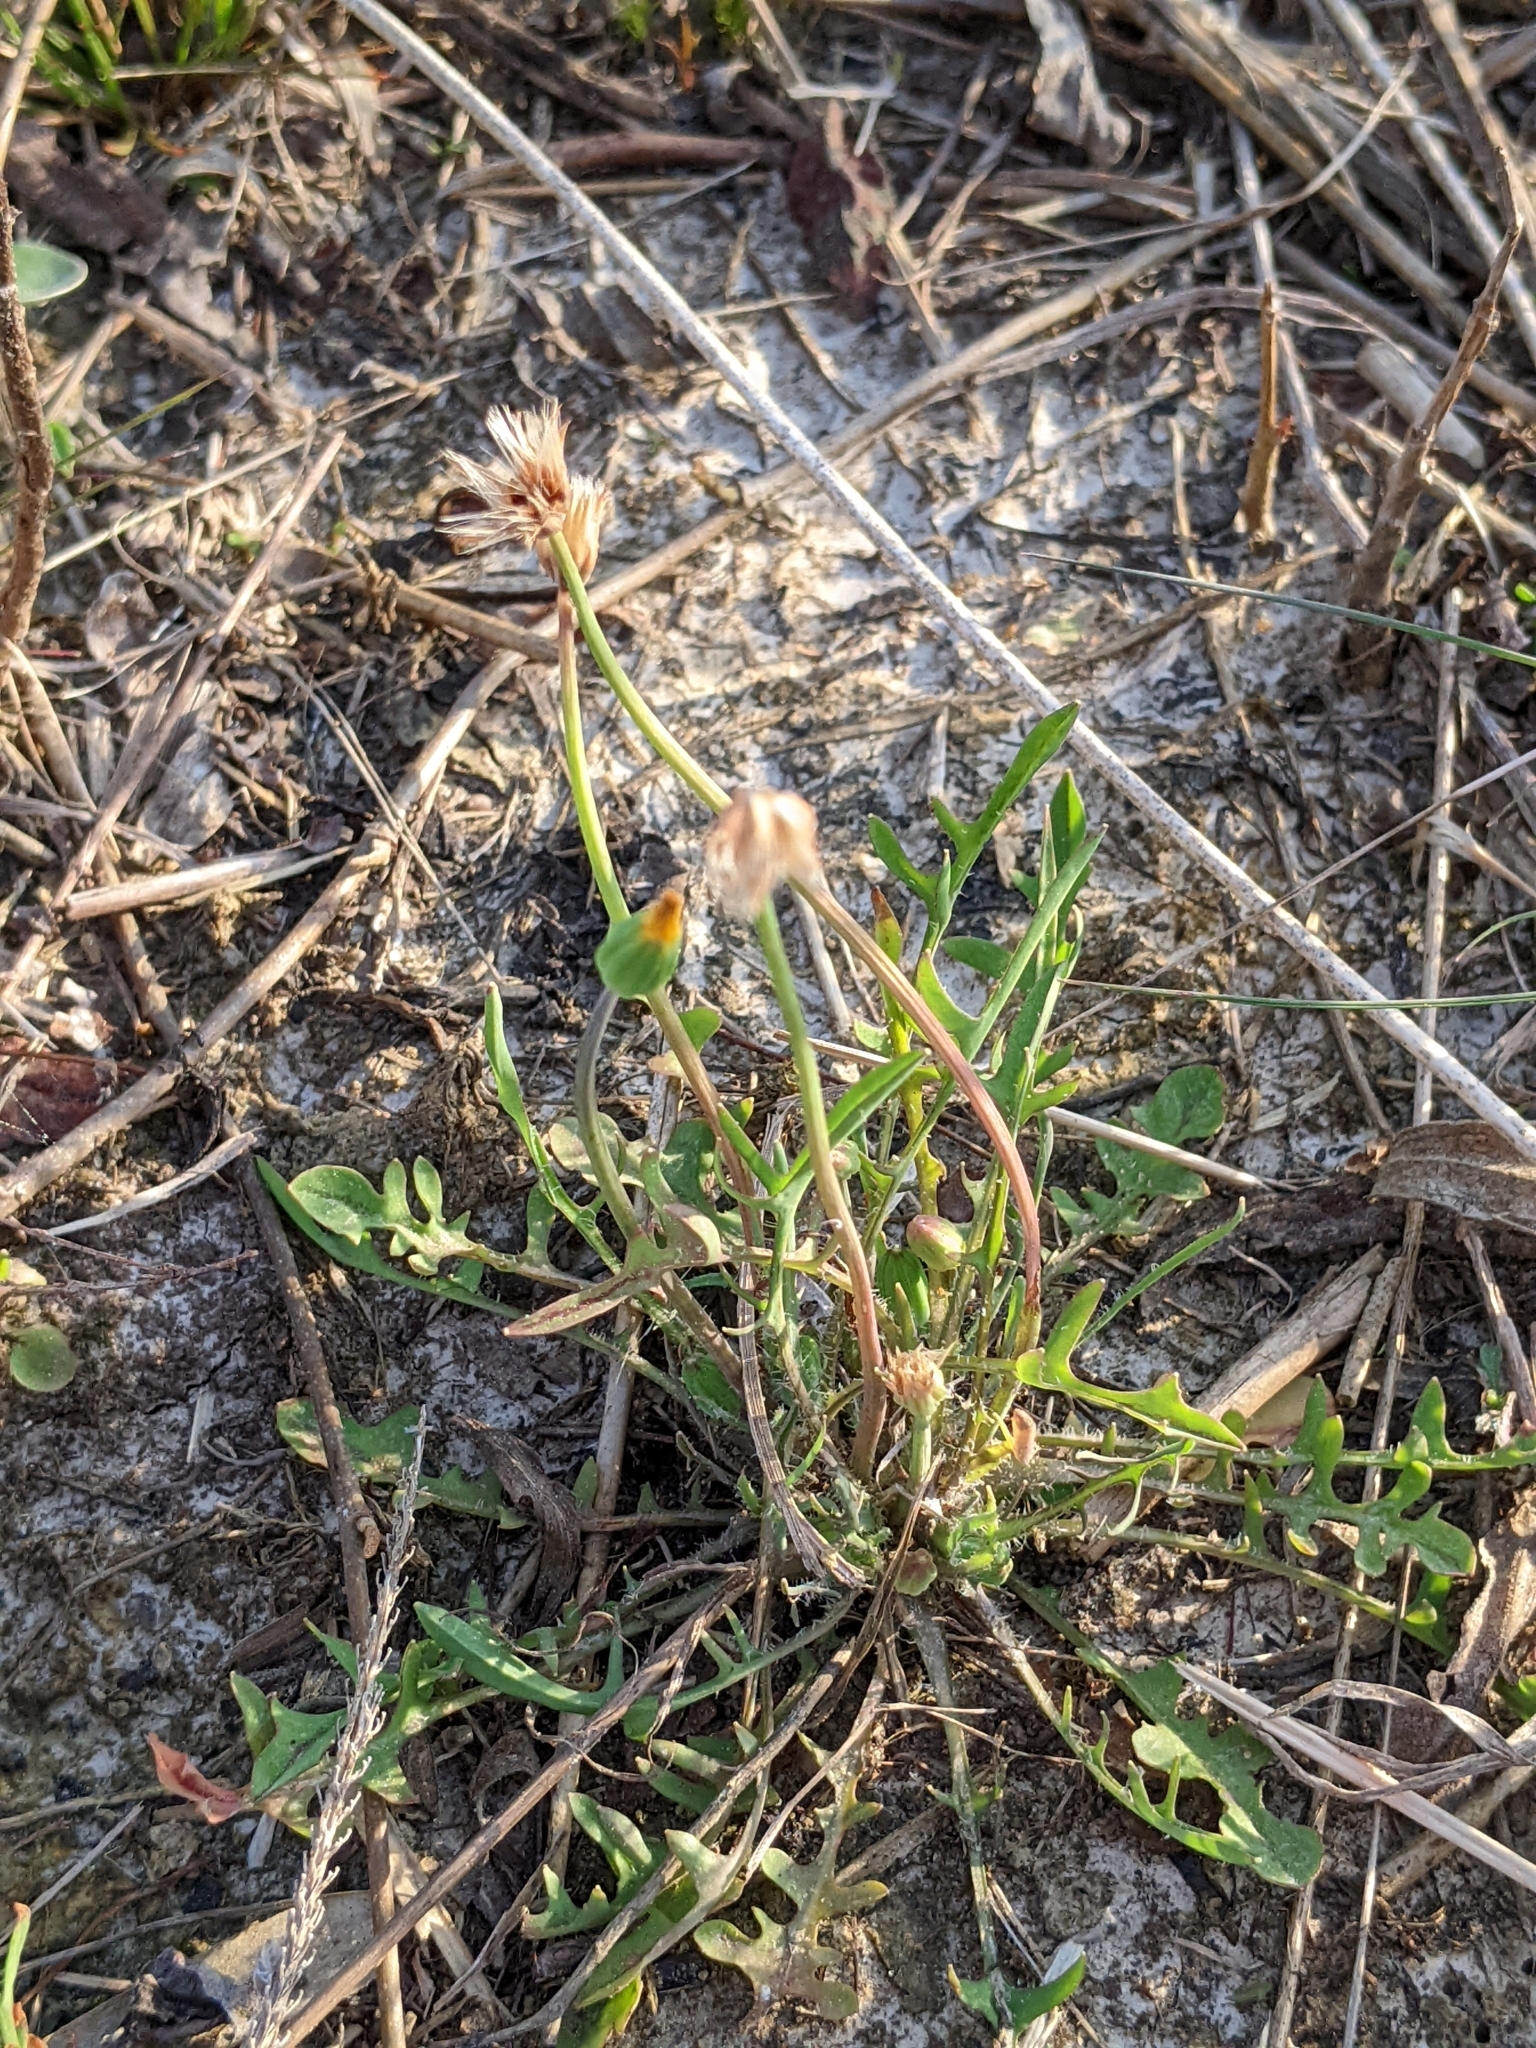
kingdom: Plantae
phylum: Tracheophyta
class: Magnoliopsida
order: Asterales
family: Asteraceae
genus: Krigia
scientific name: Krigia virginica
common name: Virginia dwarf-dandelion
